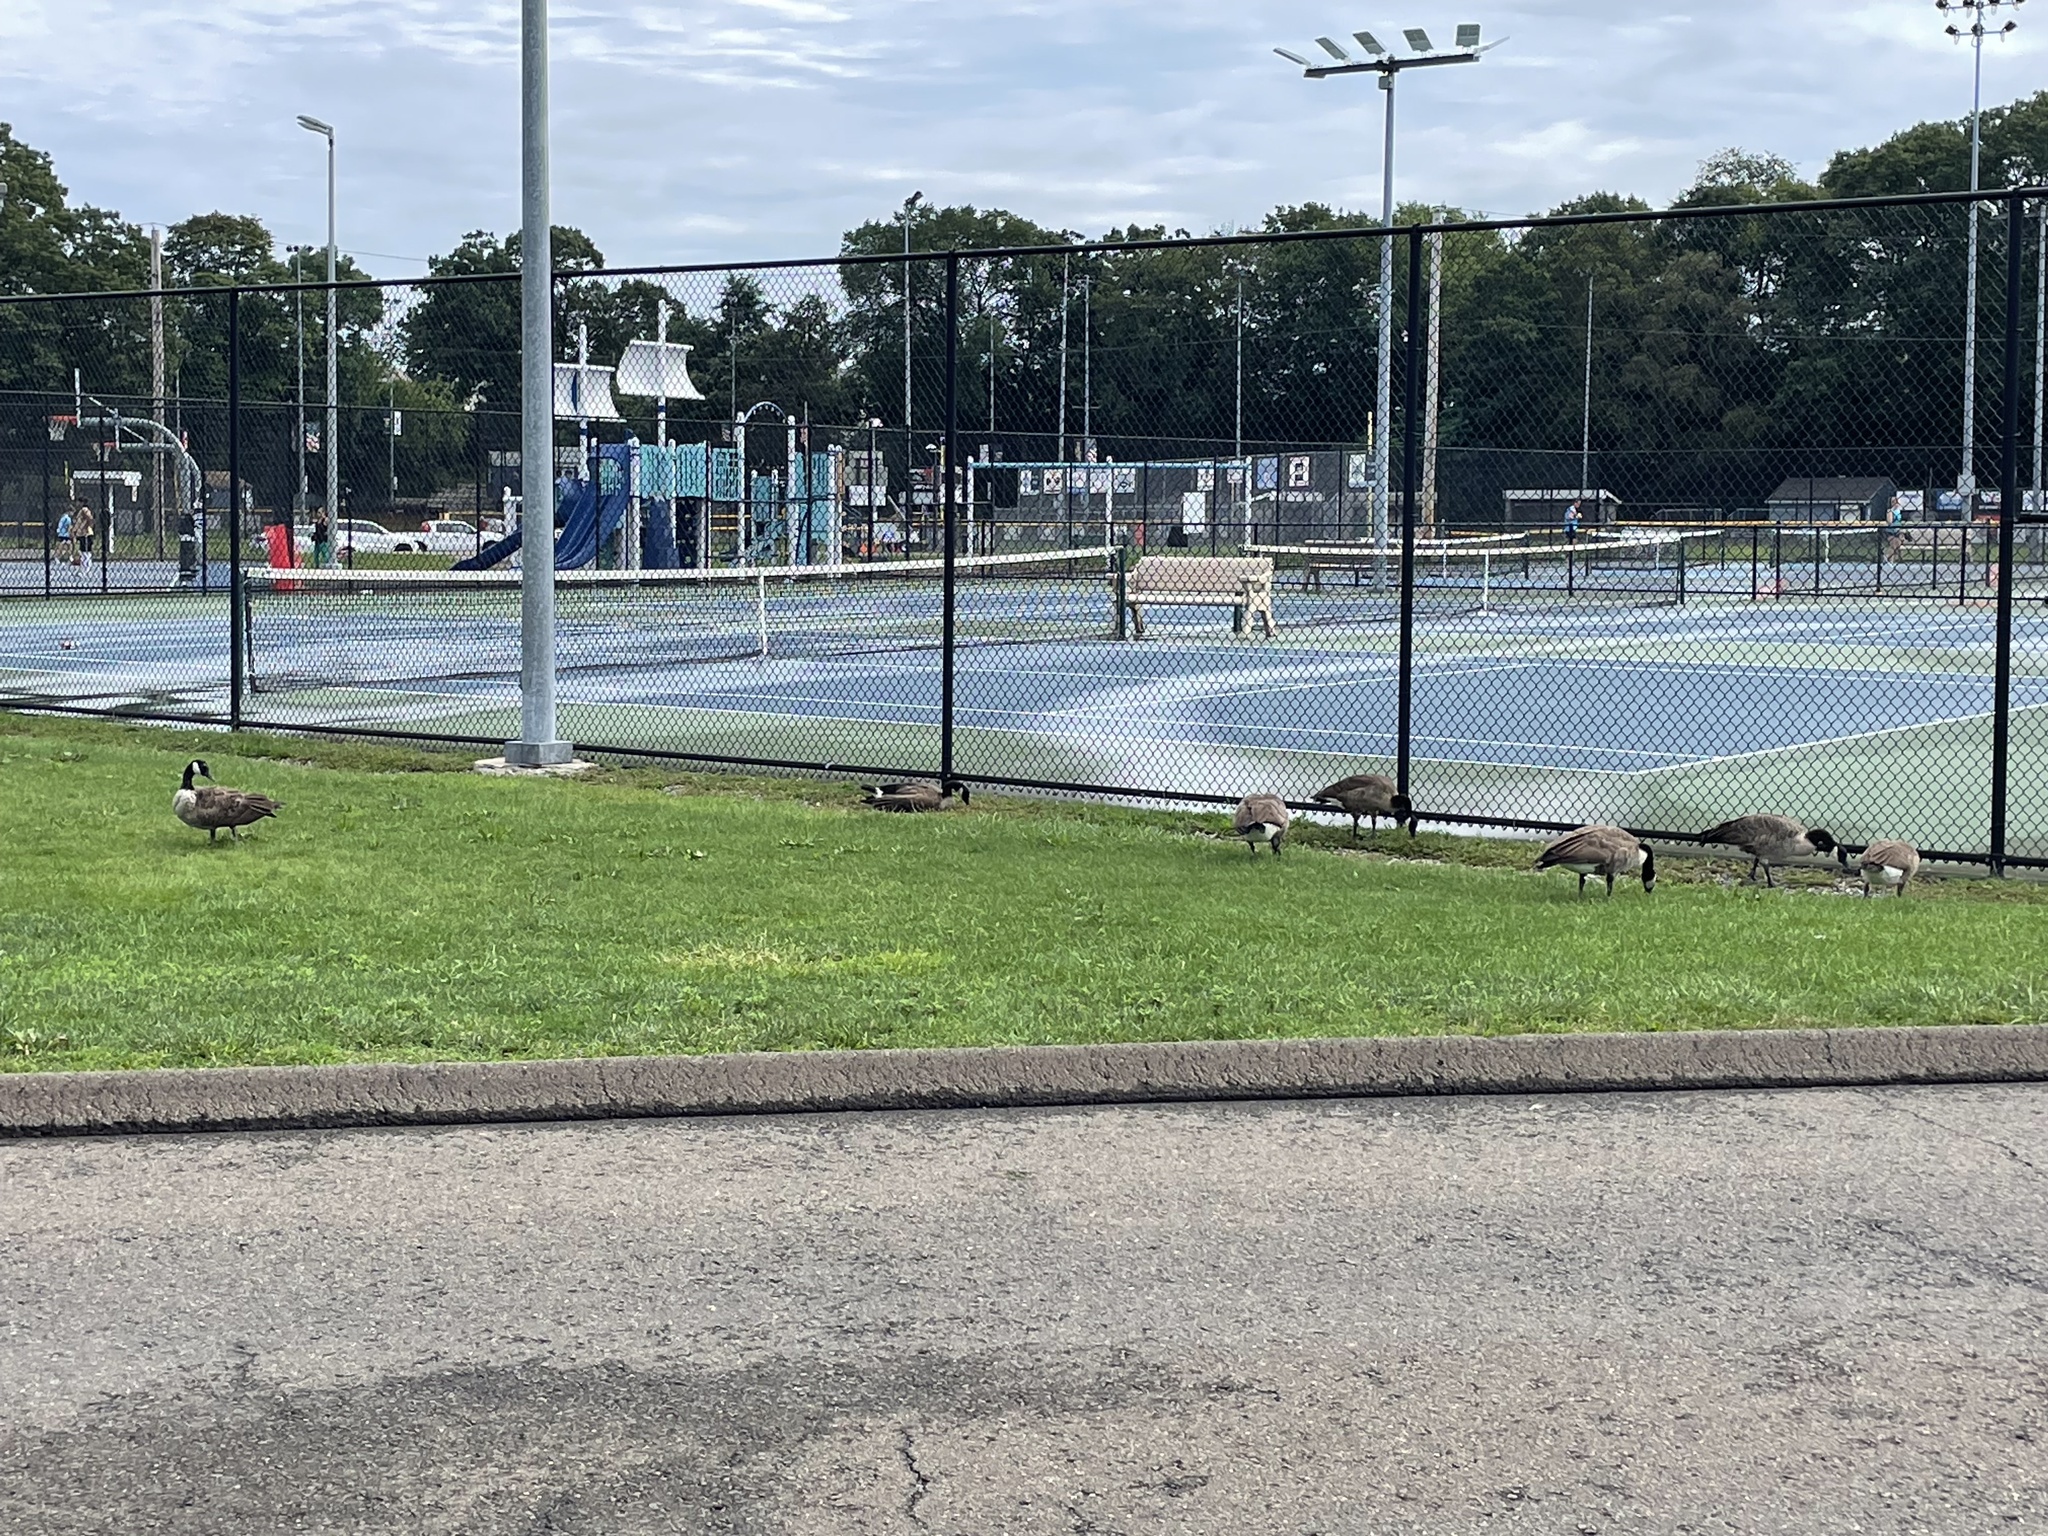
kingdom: Animalia
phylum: Chordata
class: Aves
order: Anseriformes
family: Anatidae
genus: Branta
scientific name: Branta canadensis
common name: Canada goose
